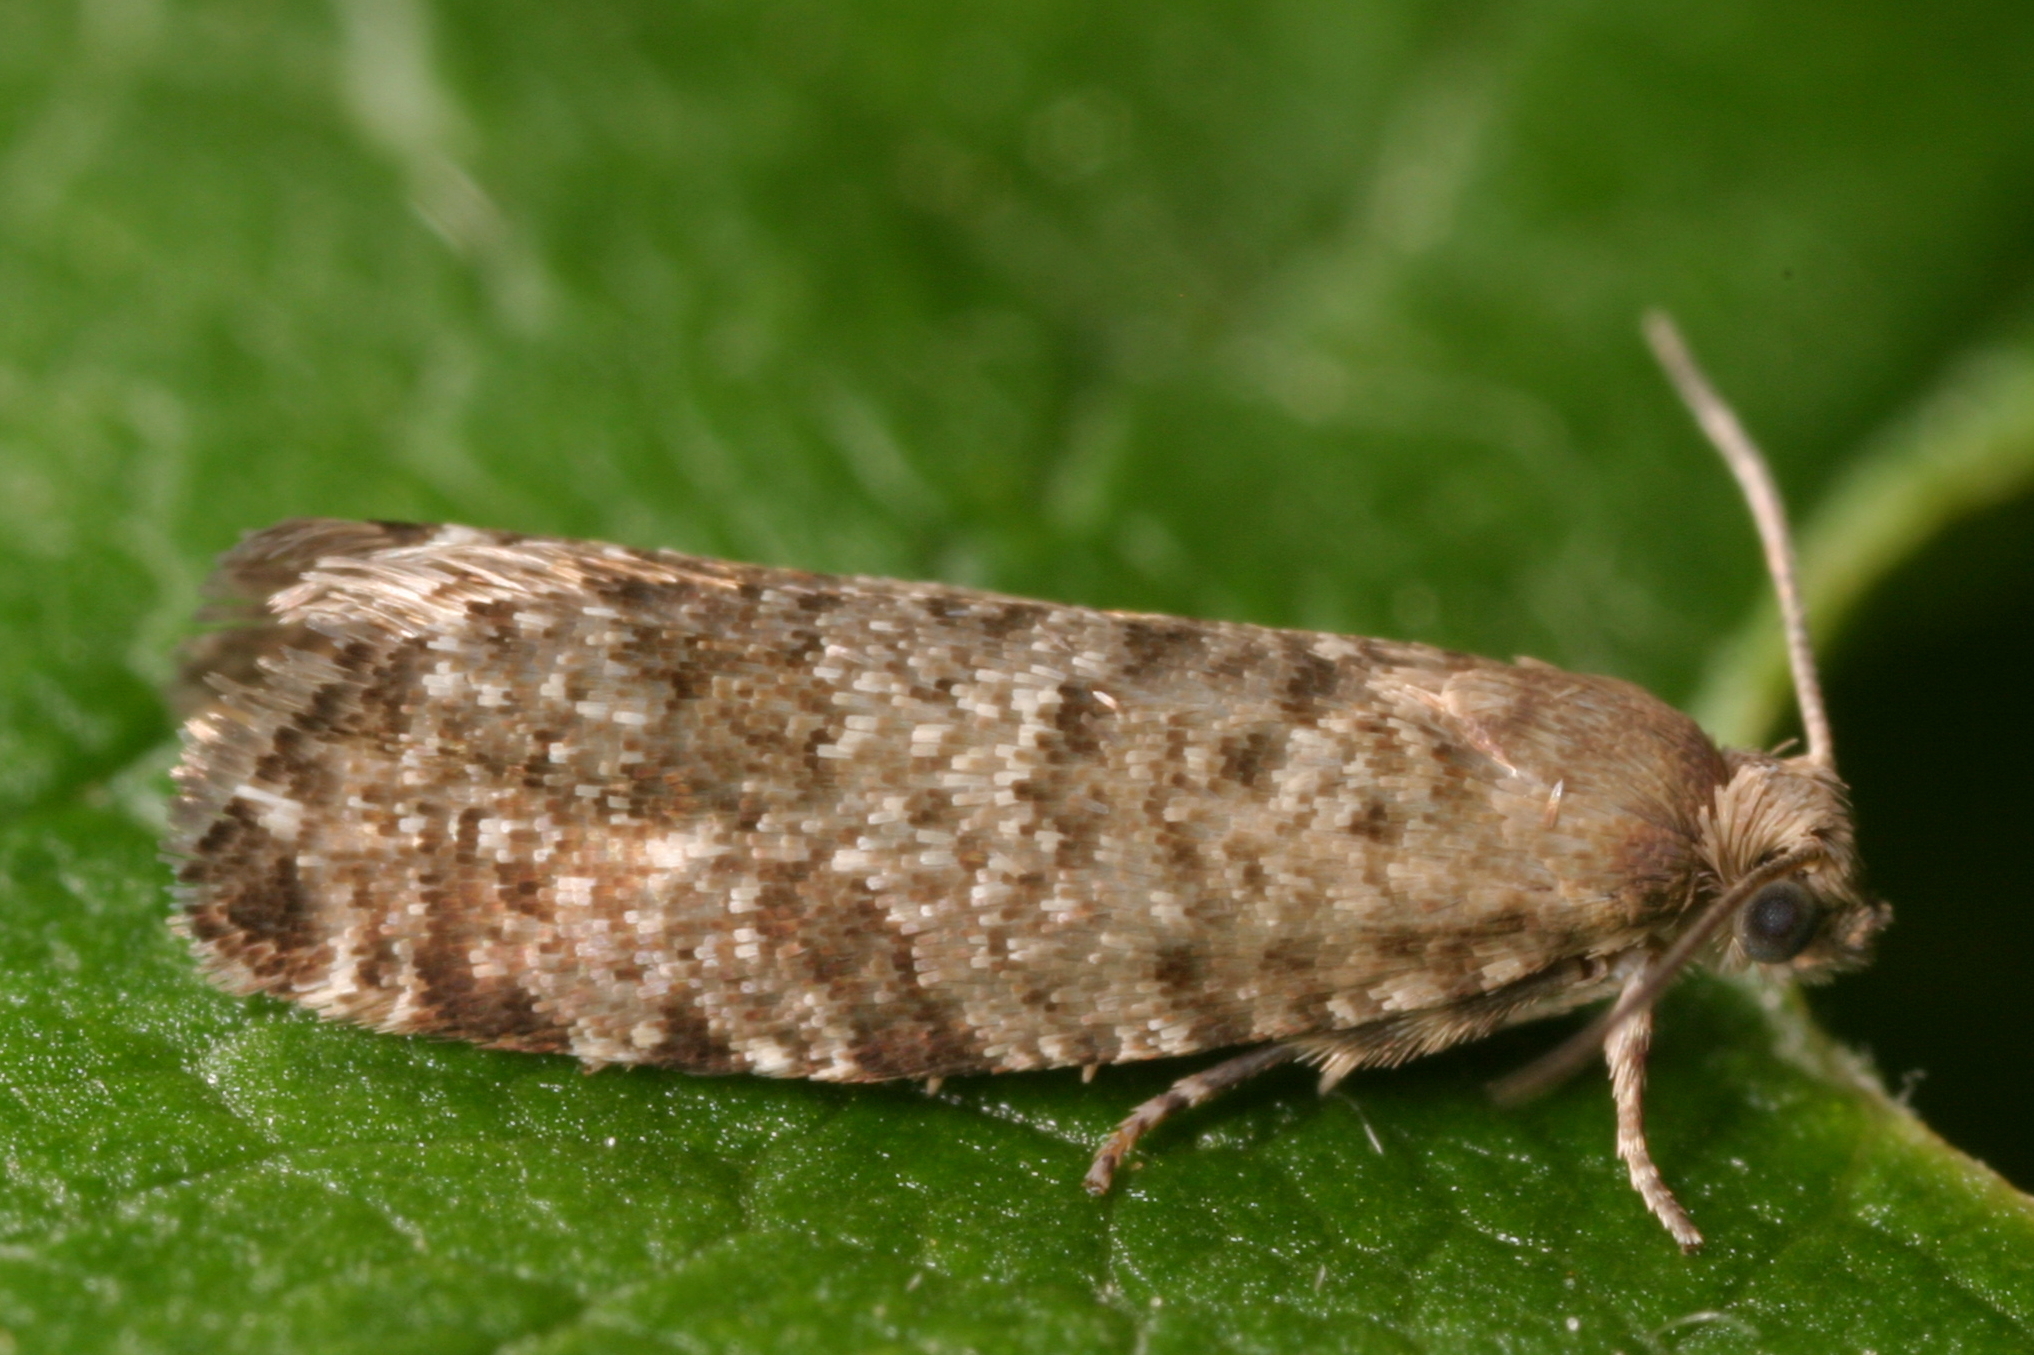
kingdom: Animalia
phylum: Arthropoda
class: Insecta
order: Lepidoptera
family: Tortricidae
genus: Epinotia
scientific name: Epinotia nanana
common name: Leaf roller
